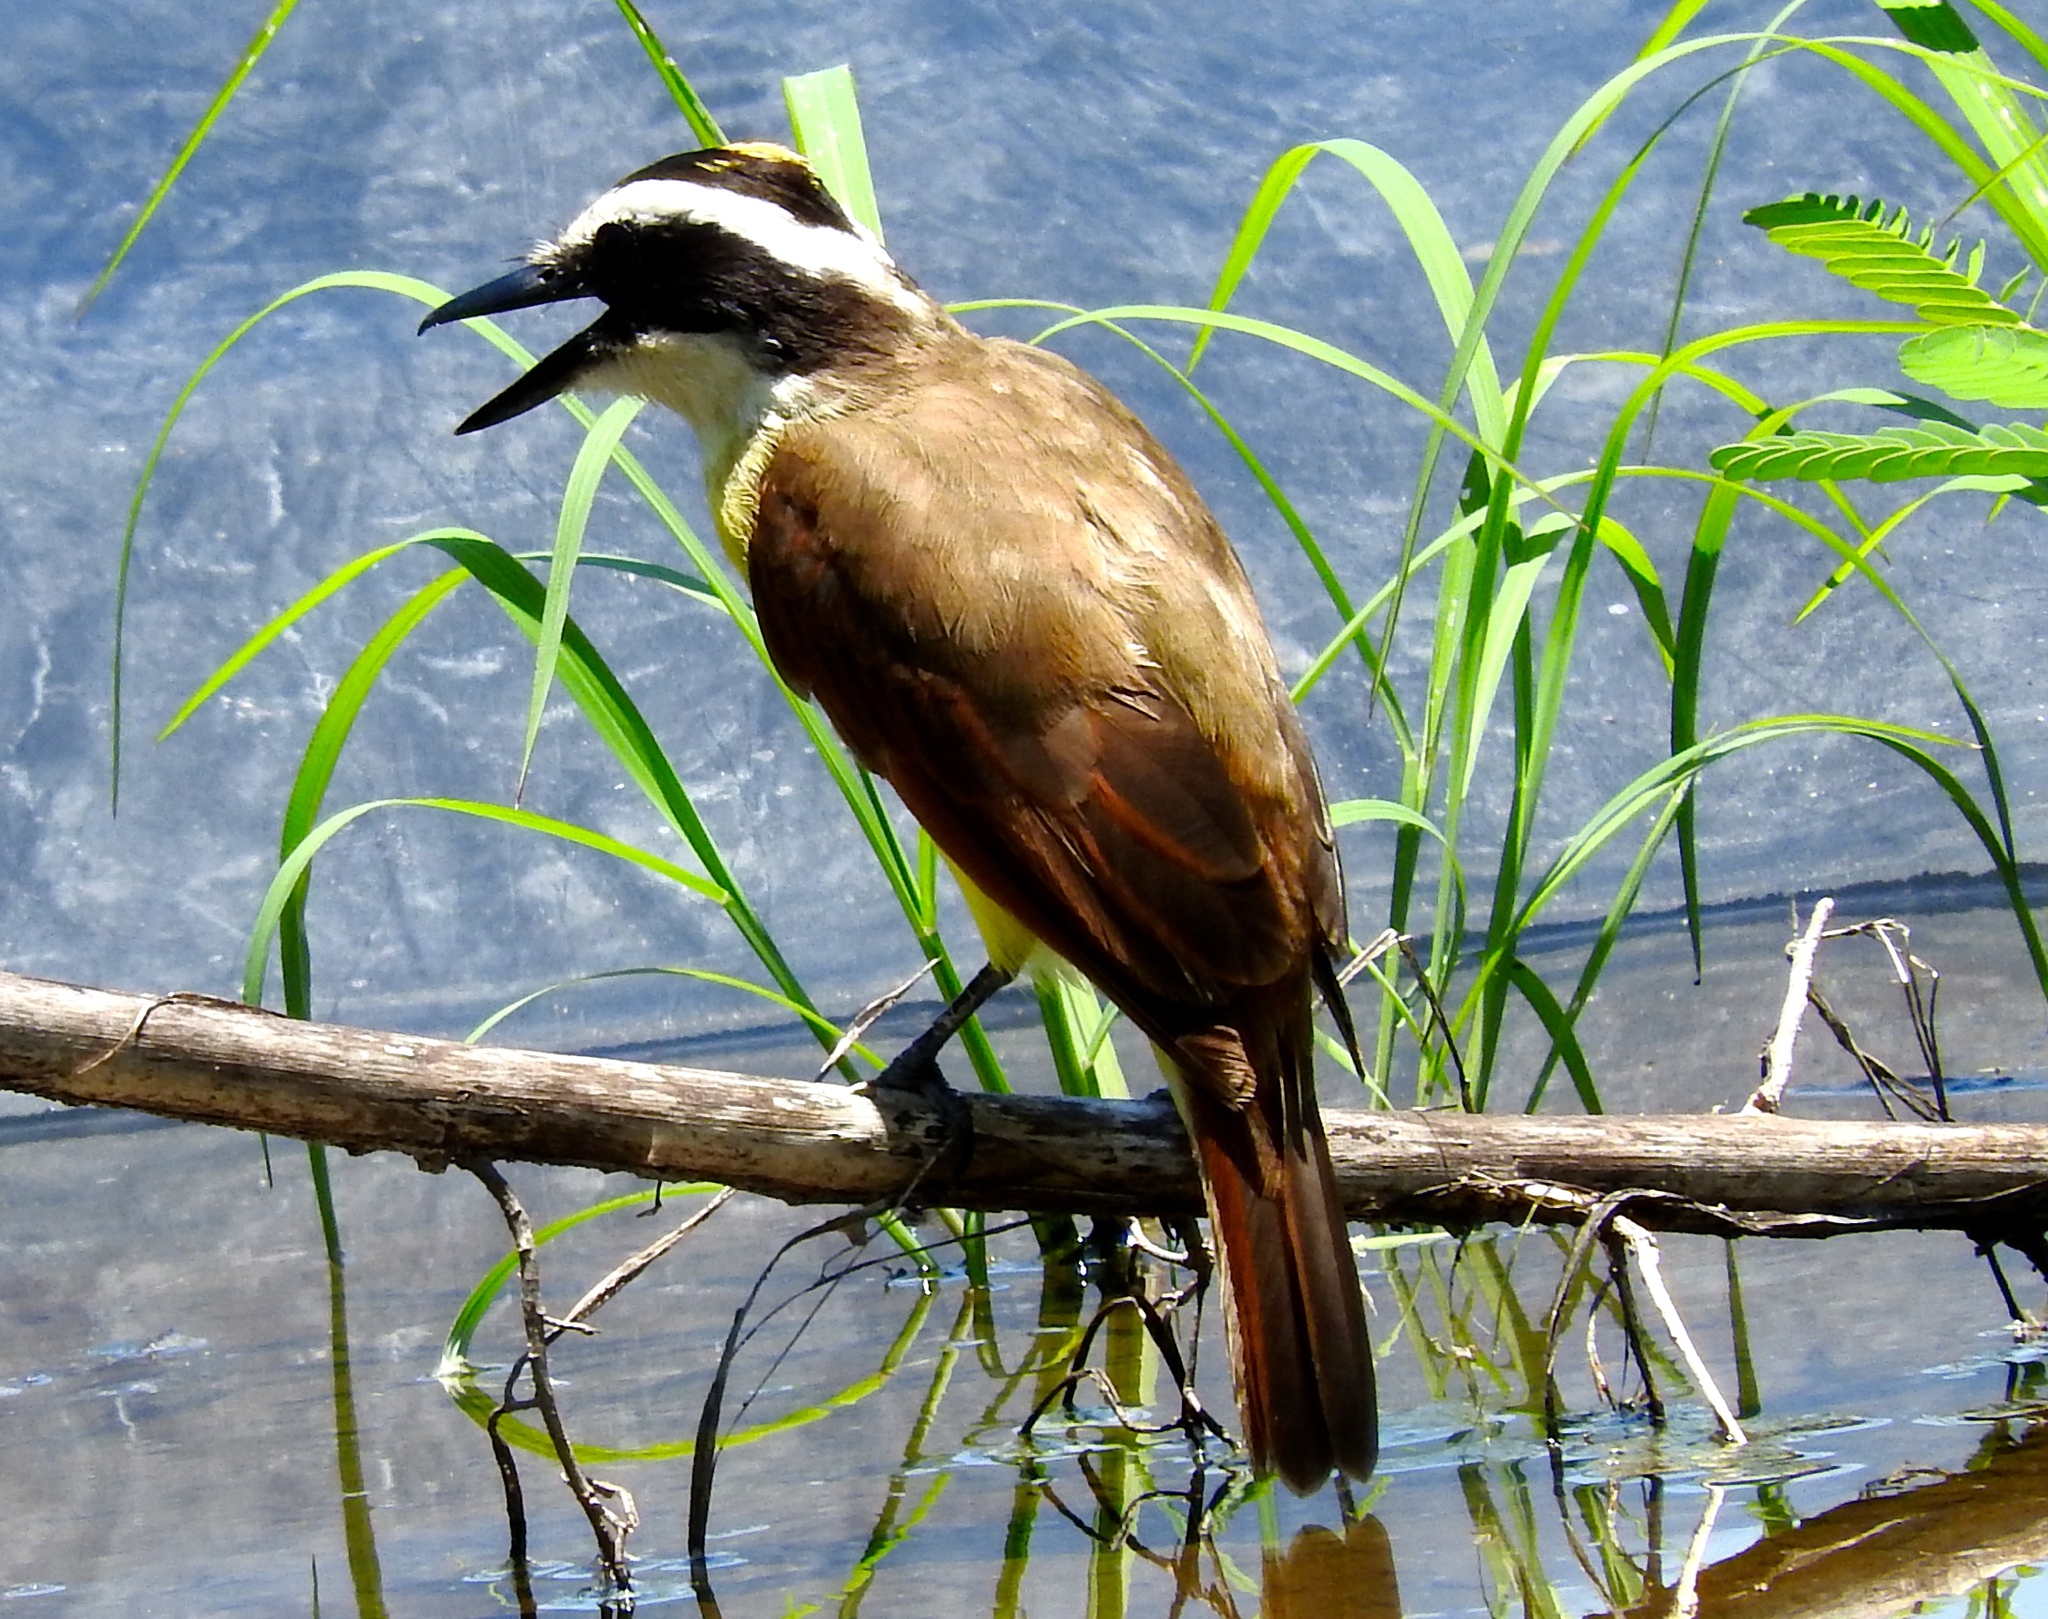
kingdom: Animalia
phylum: Chordata
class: Aves
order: Passeriformes
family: Tyrannidae
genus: Pitangus
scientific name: Pitangus sulphuratus
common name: Great kiskadee
